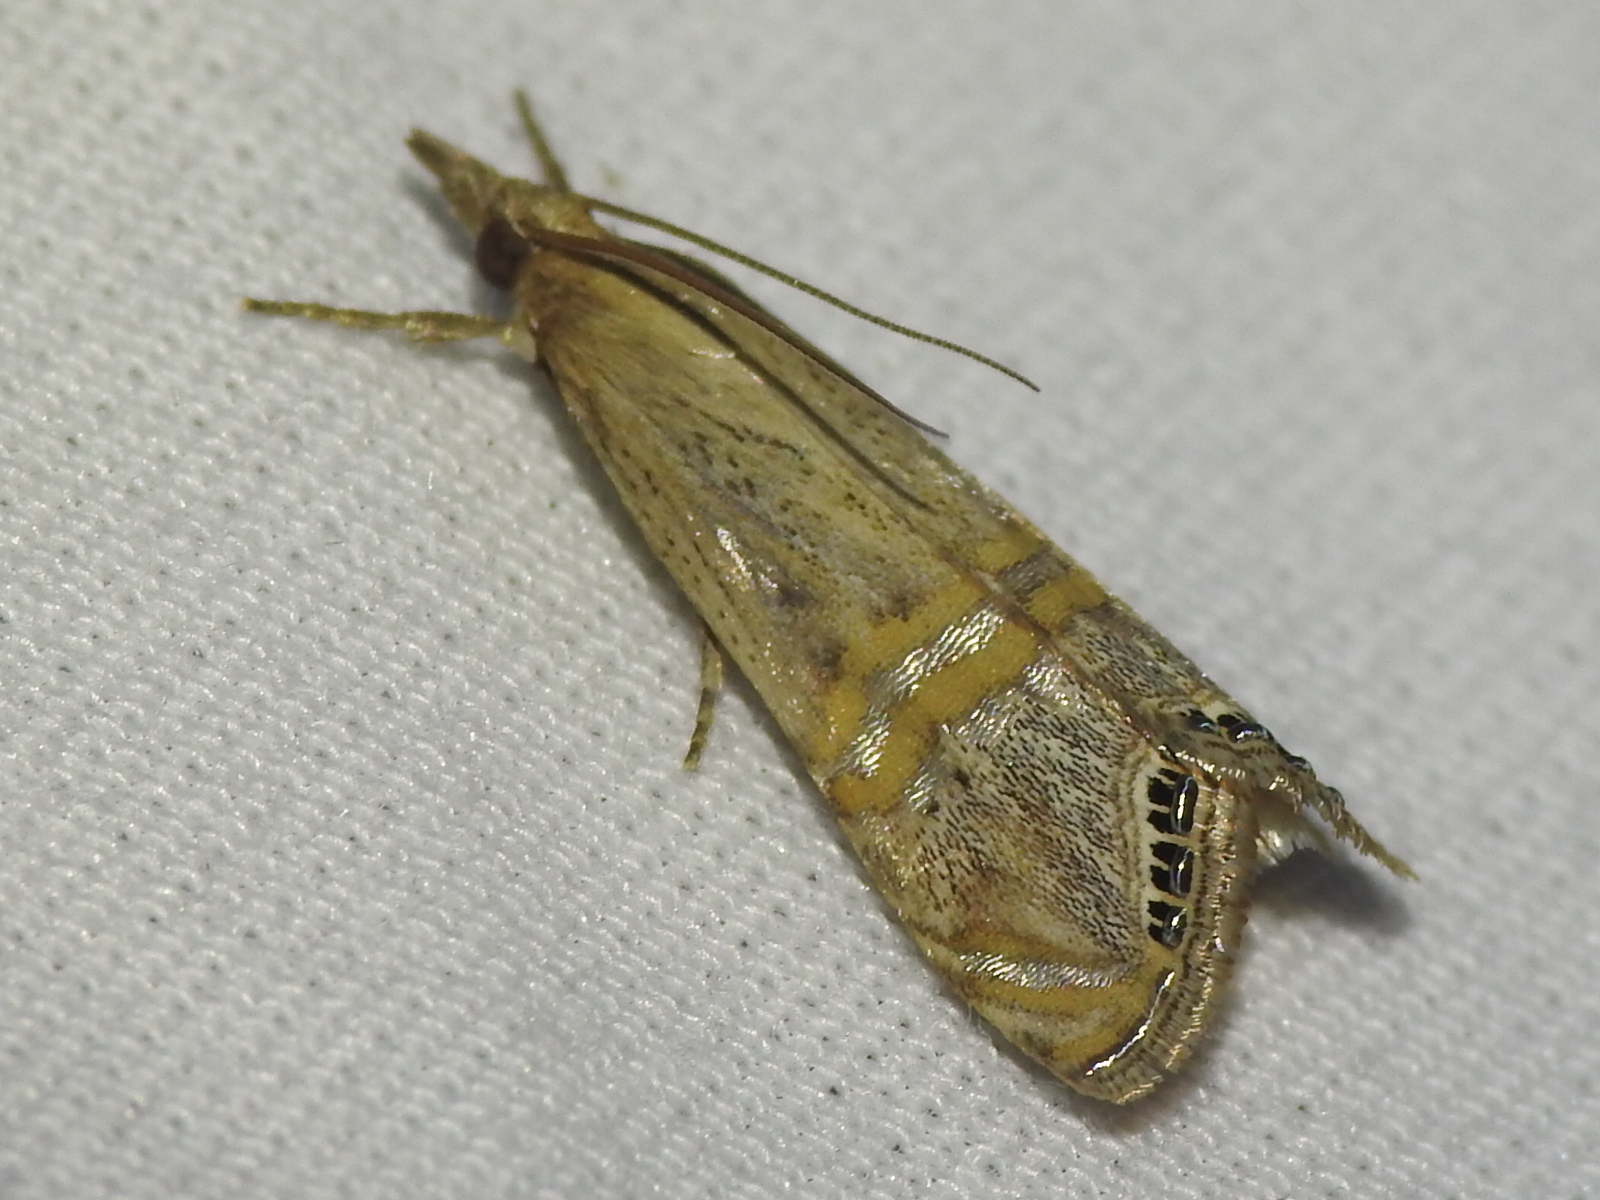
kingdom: Animalia
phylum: Arthropoda
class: Insecta
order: Lepidoptera
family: Crambidae
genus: Euchromius
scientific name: Euchromius ocellea
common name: Necklace veneer moth
